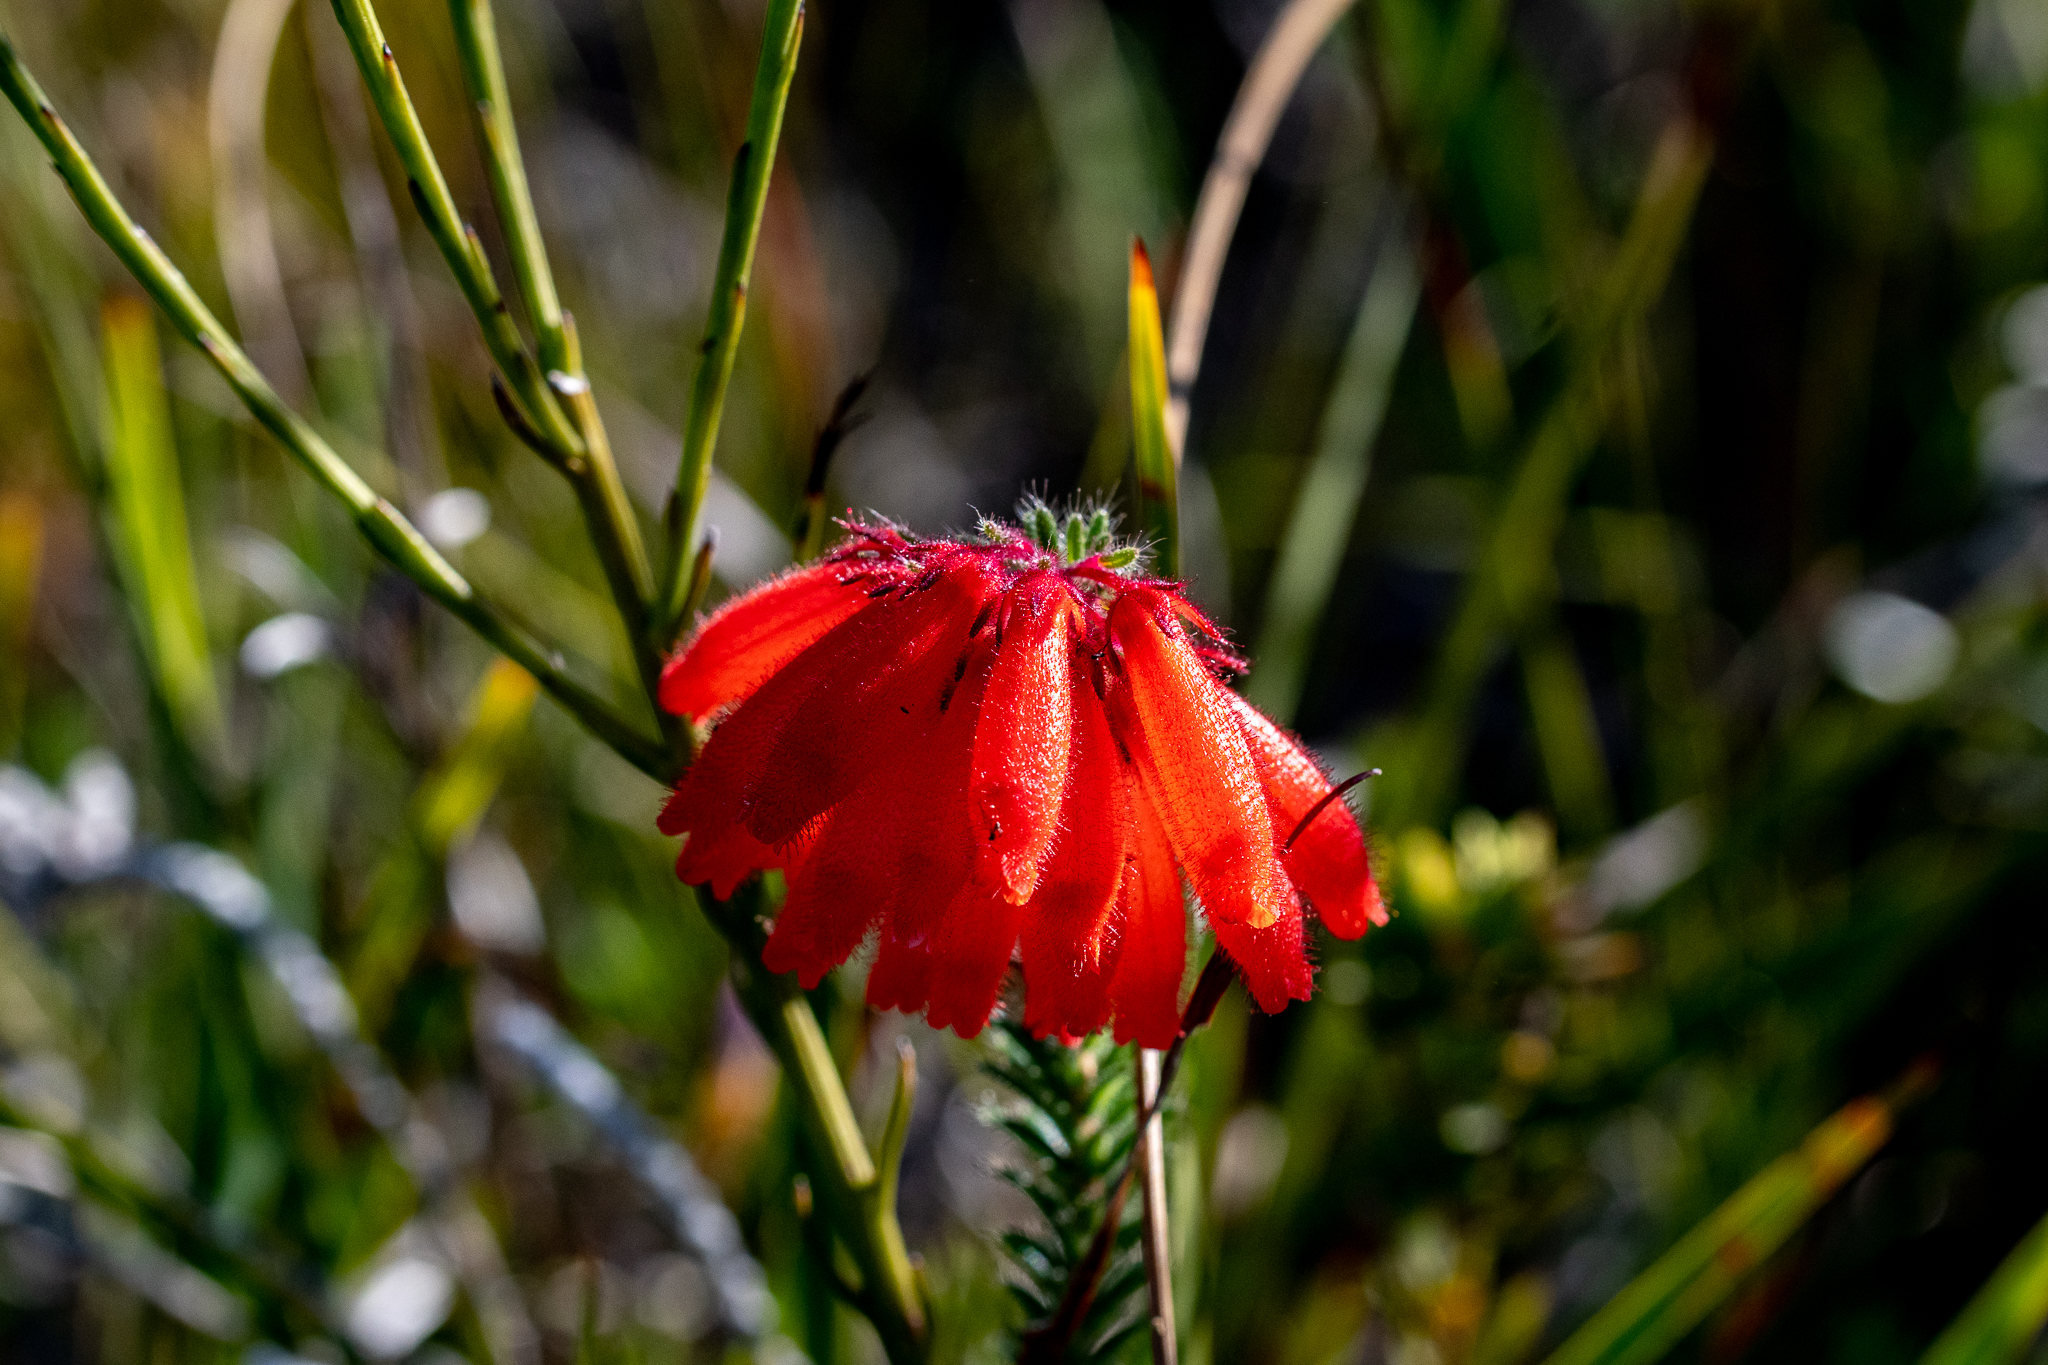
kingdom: Plantae
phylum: Tracheophyta
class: Magnoliopsida
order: Ericales
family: Ericaceae
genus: Erica
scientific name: Erica cerinthoides
